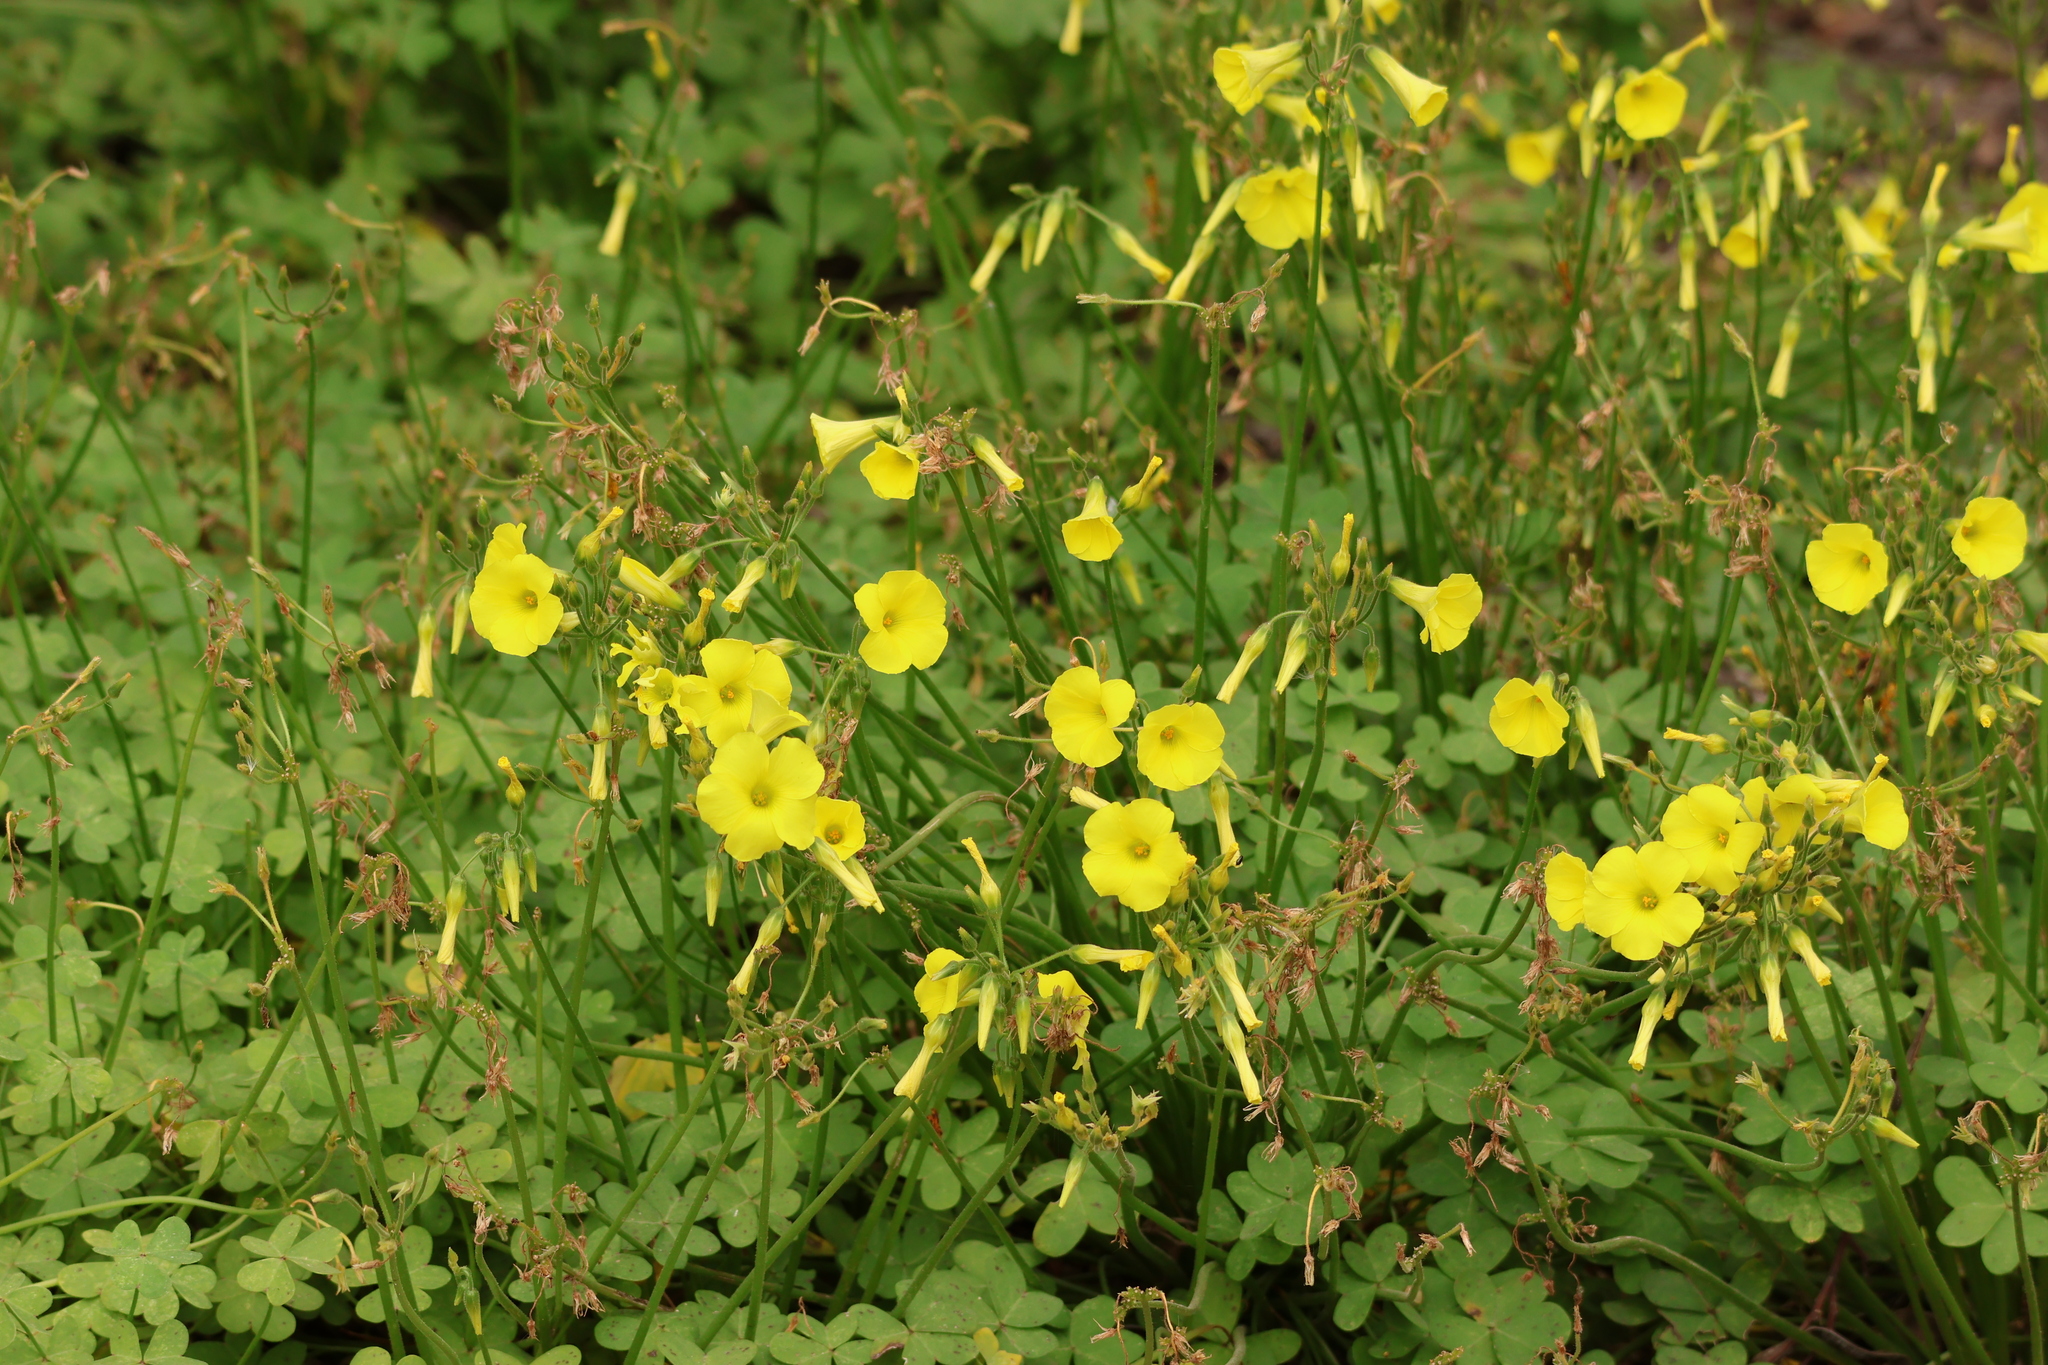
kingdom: Plantae
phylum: Tracheophyta
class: Magnoliopsida
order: Oxalidales
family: Oxalidaceae
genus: Oxalis
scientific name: Oxalis pes-caprae
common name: Bermuda-buttercup
